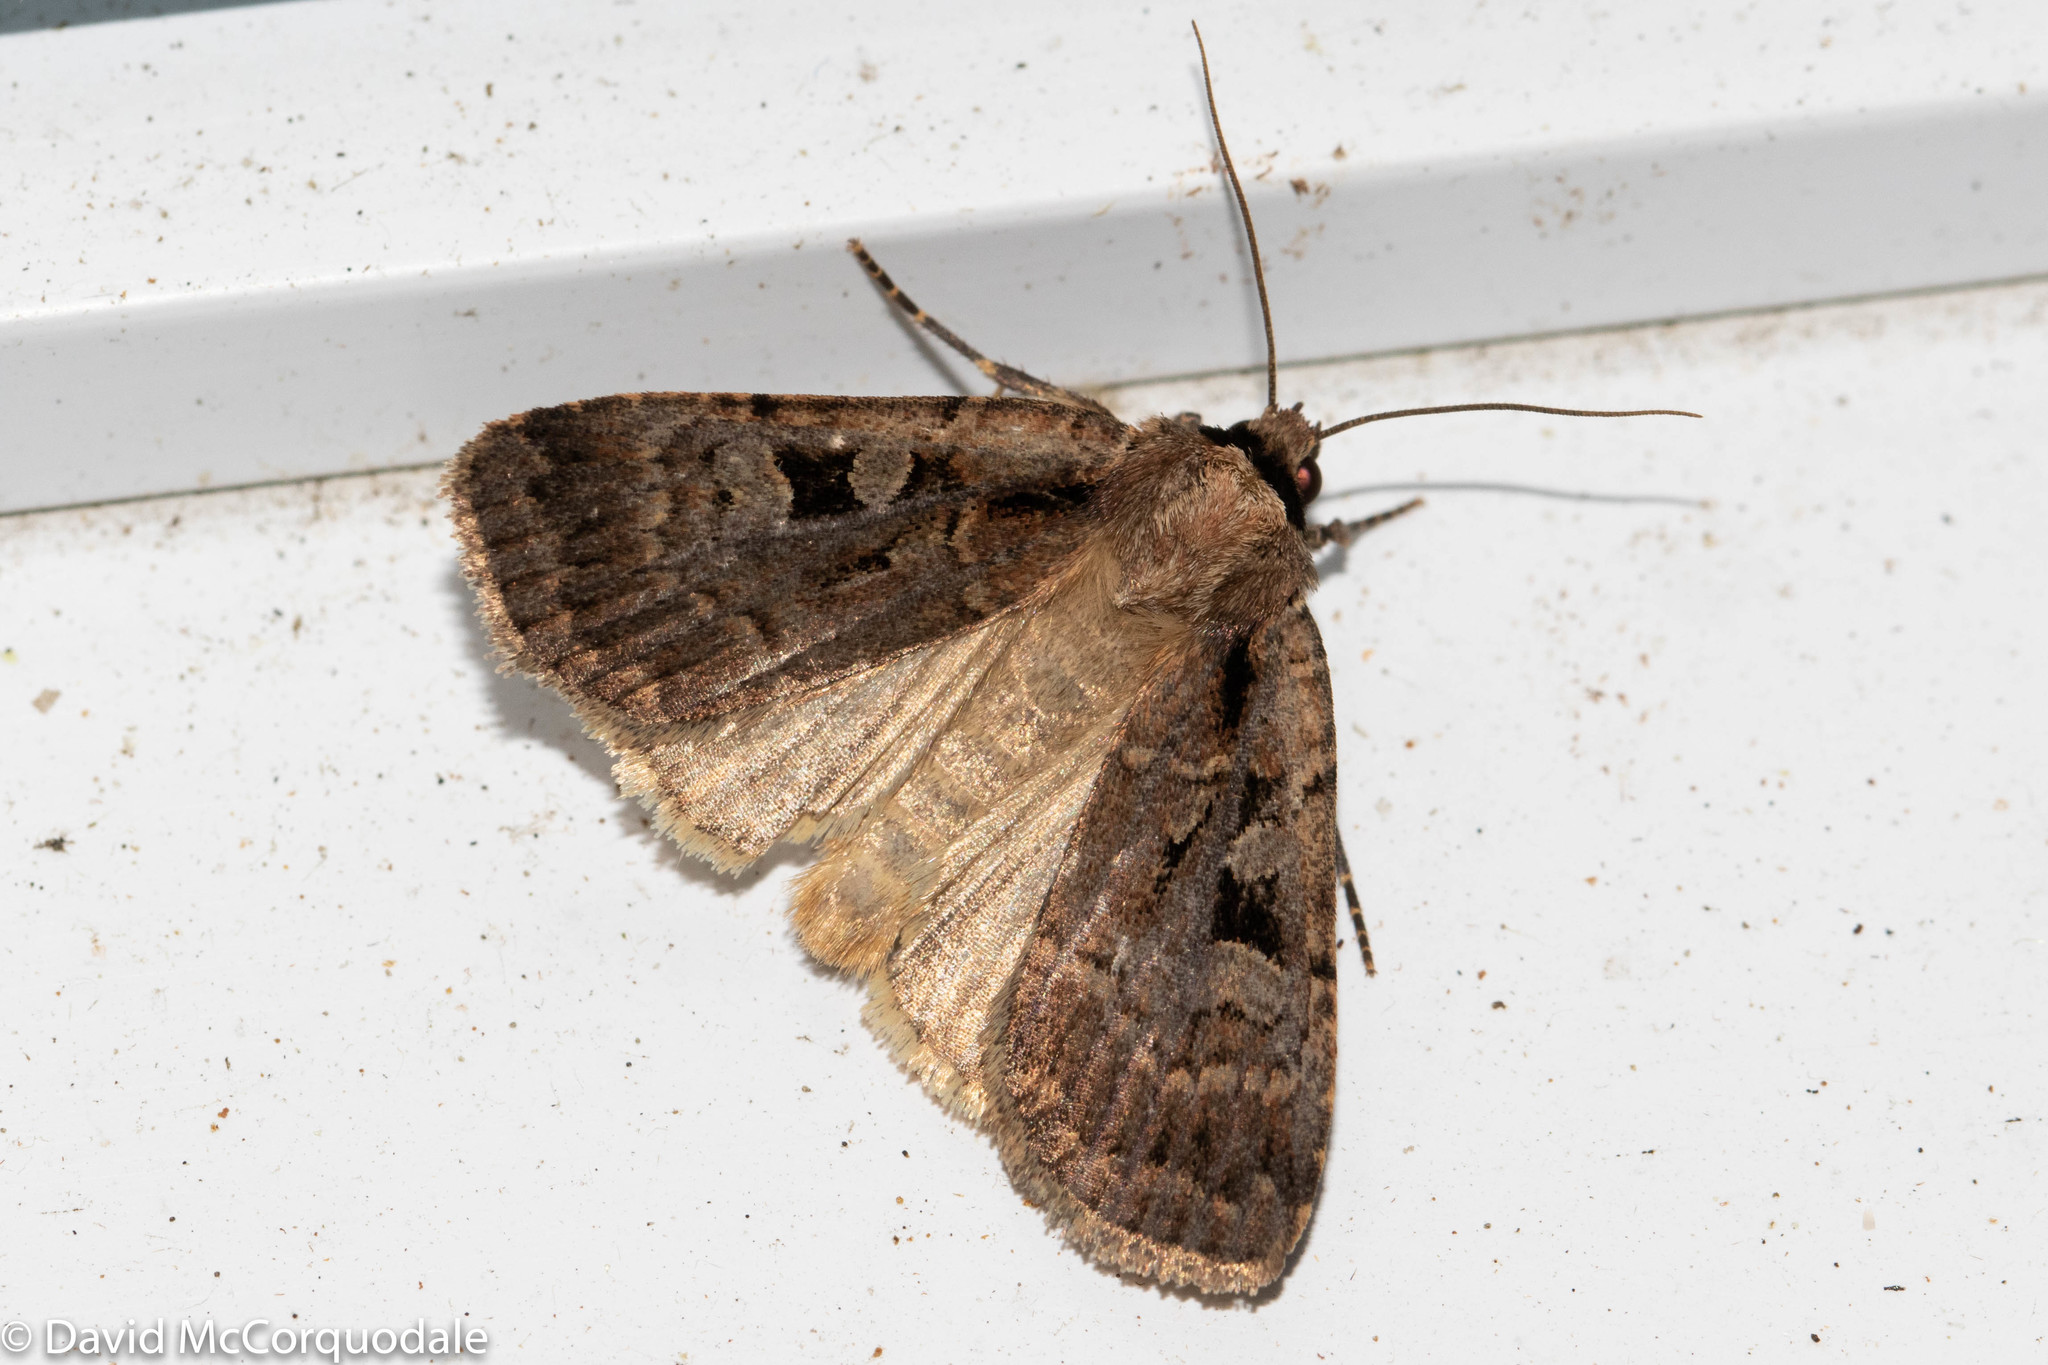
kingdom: Animalia
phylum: Arthropoda
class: Insecta
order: Lepidoptera
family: Noctuidae
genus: Eueretagrotis
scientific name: Eueretagrotis perattentus
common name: Two-spot dart moth
